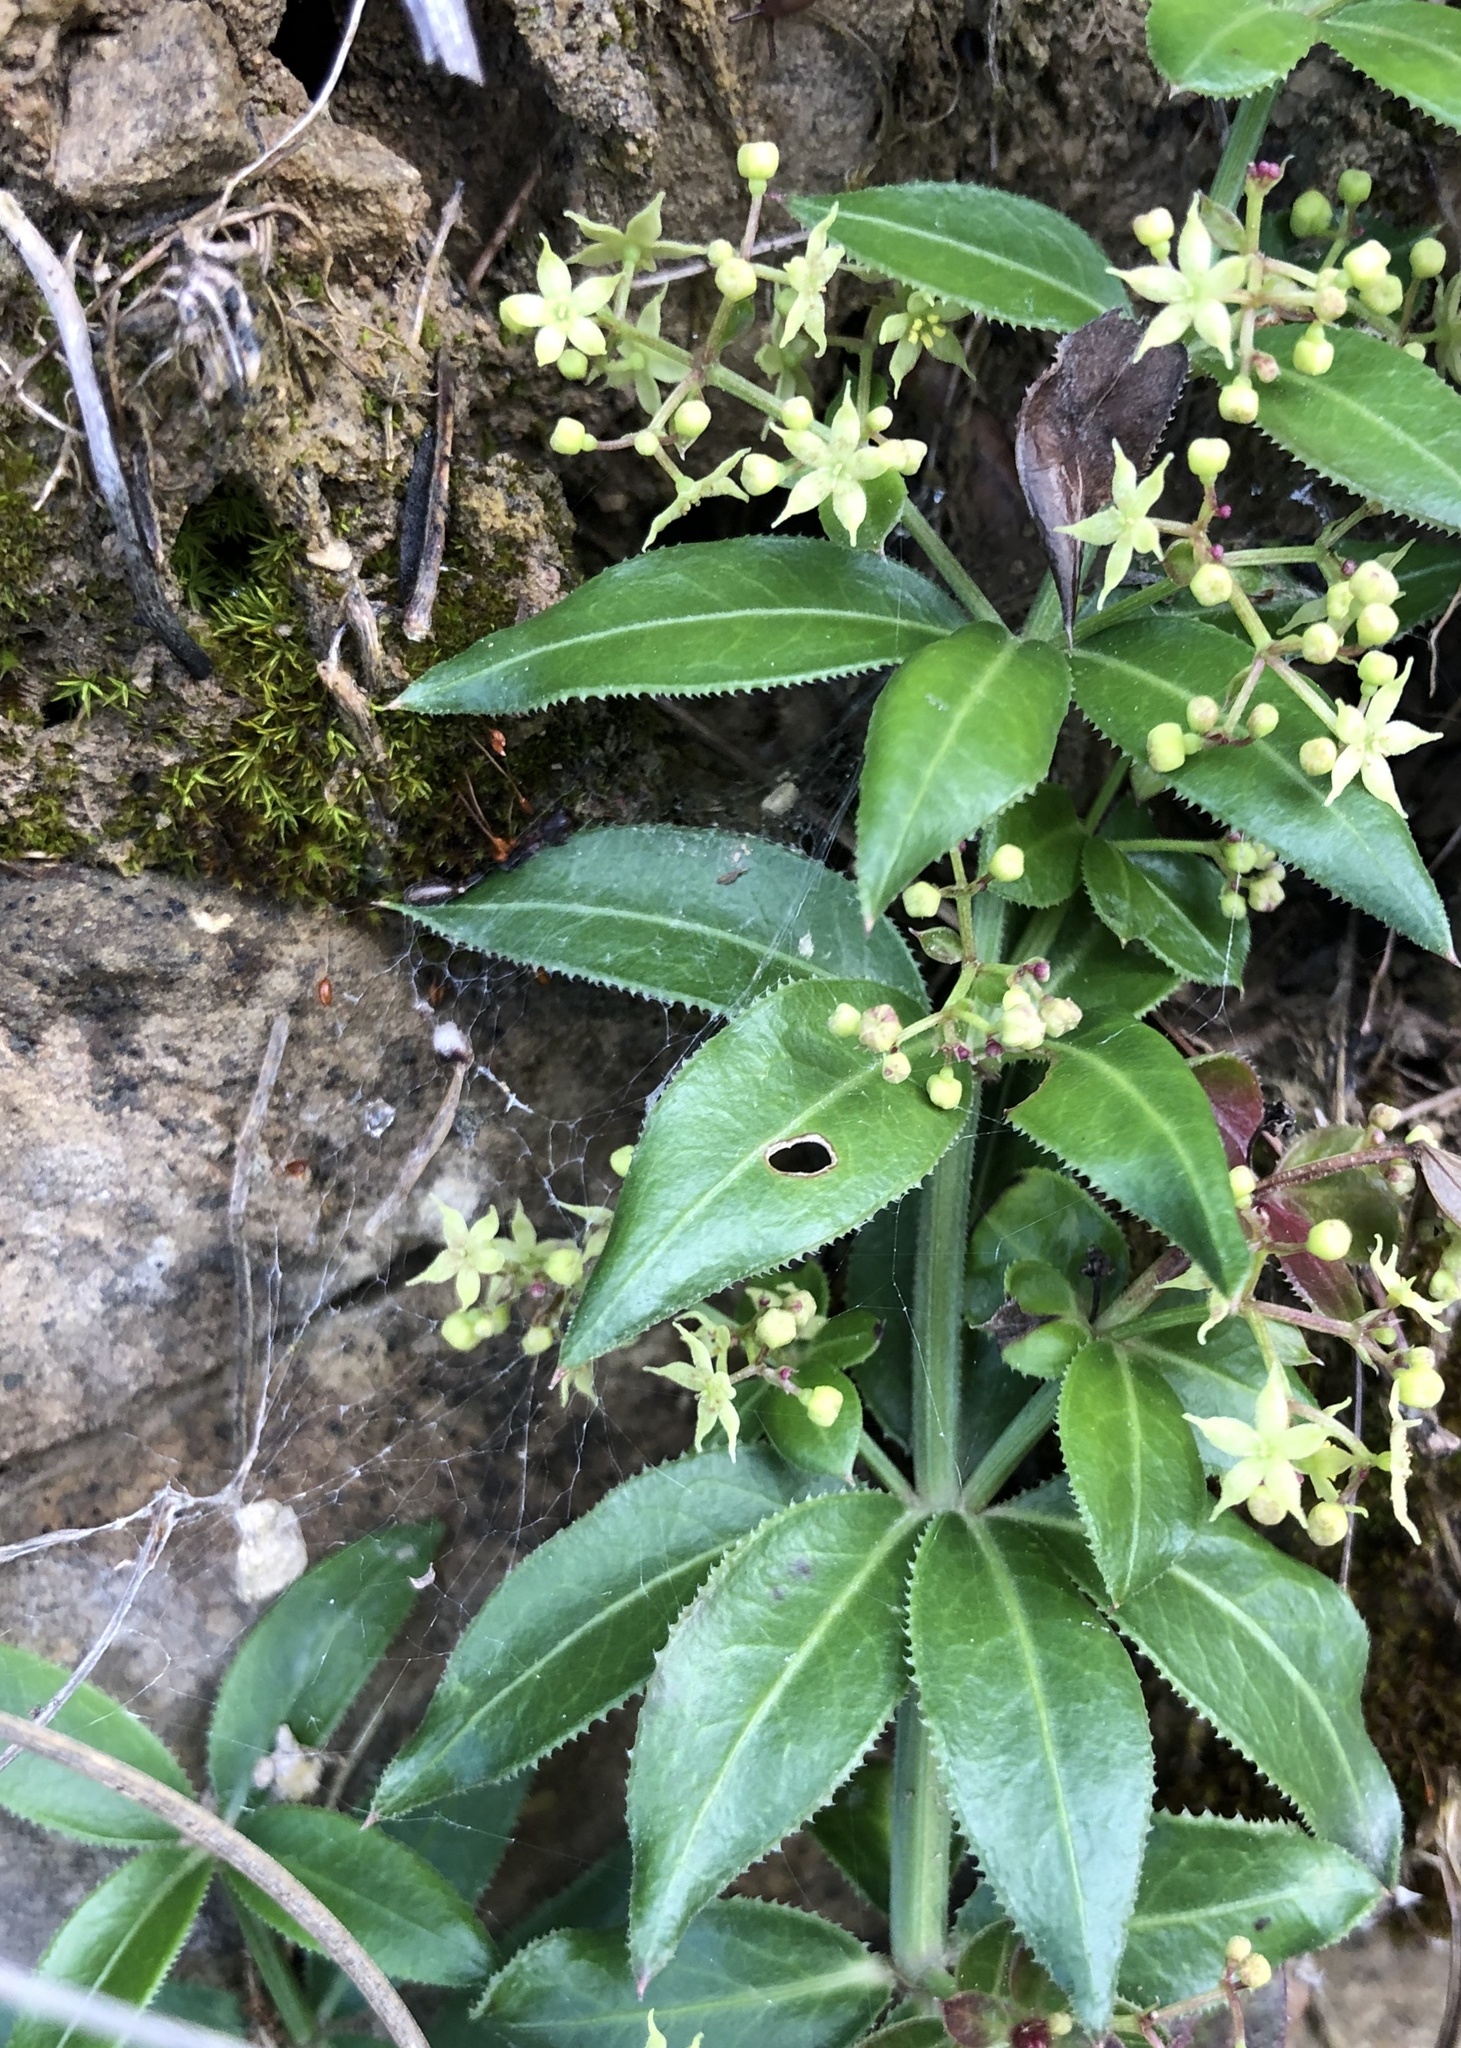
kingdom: Plantae
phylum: Tracheophyta
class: Magnoliopsida
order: Gentianales
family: Rubiaceae
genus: Rubia
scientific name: Rubia peregrina
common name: Wild madder
